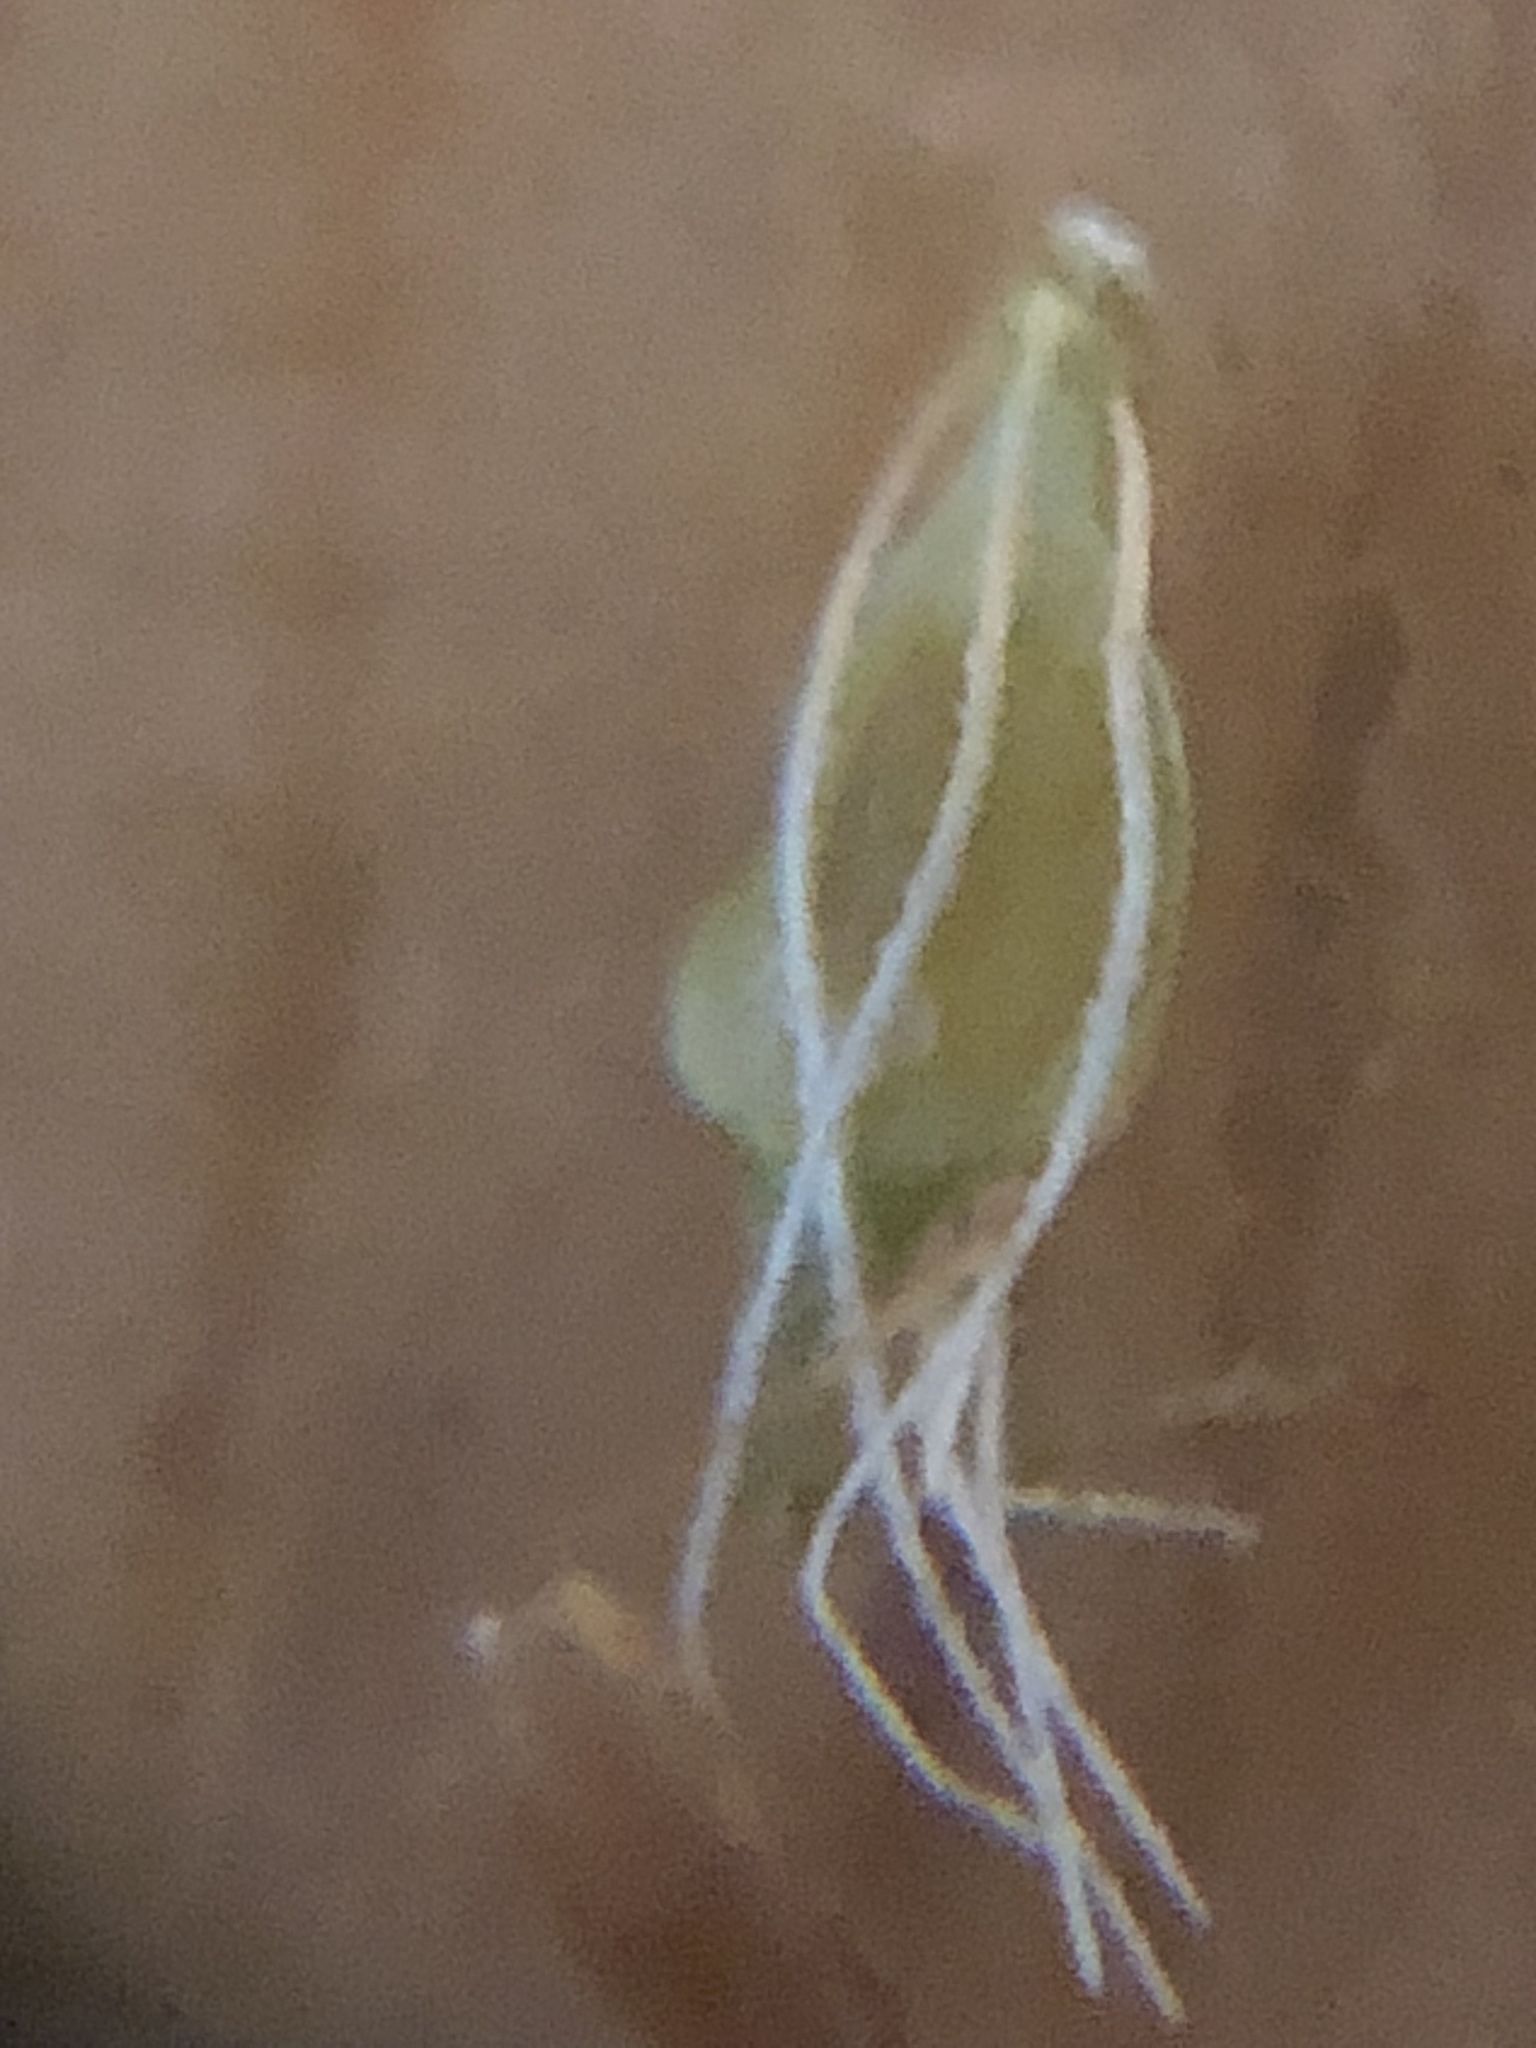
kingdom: Plantae
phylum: Tracheophyta
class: Liliopsida
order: Poales
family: Cyperaceae
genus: Rhynchospora
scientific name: Rhynchospora microcephala
